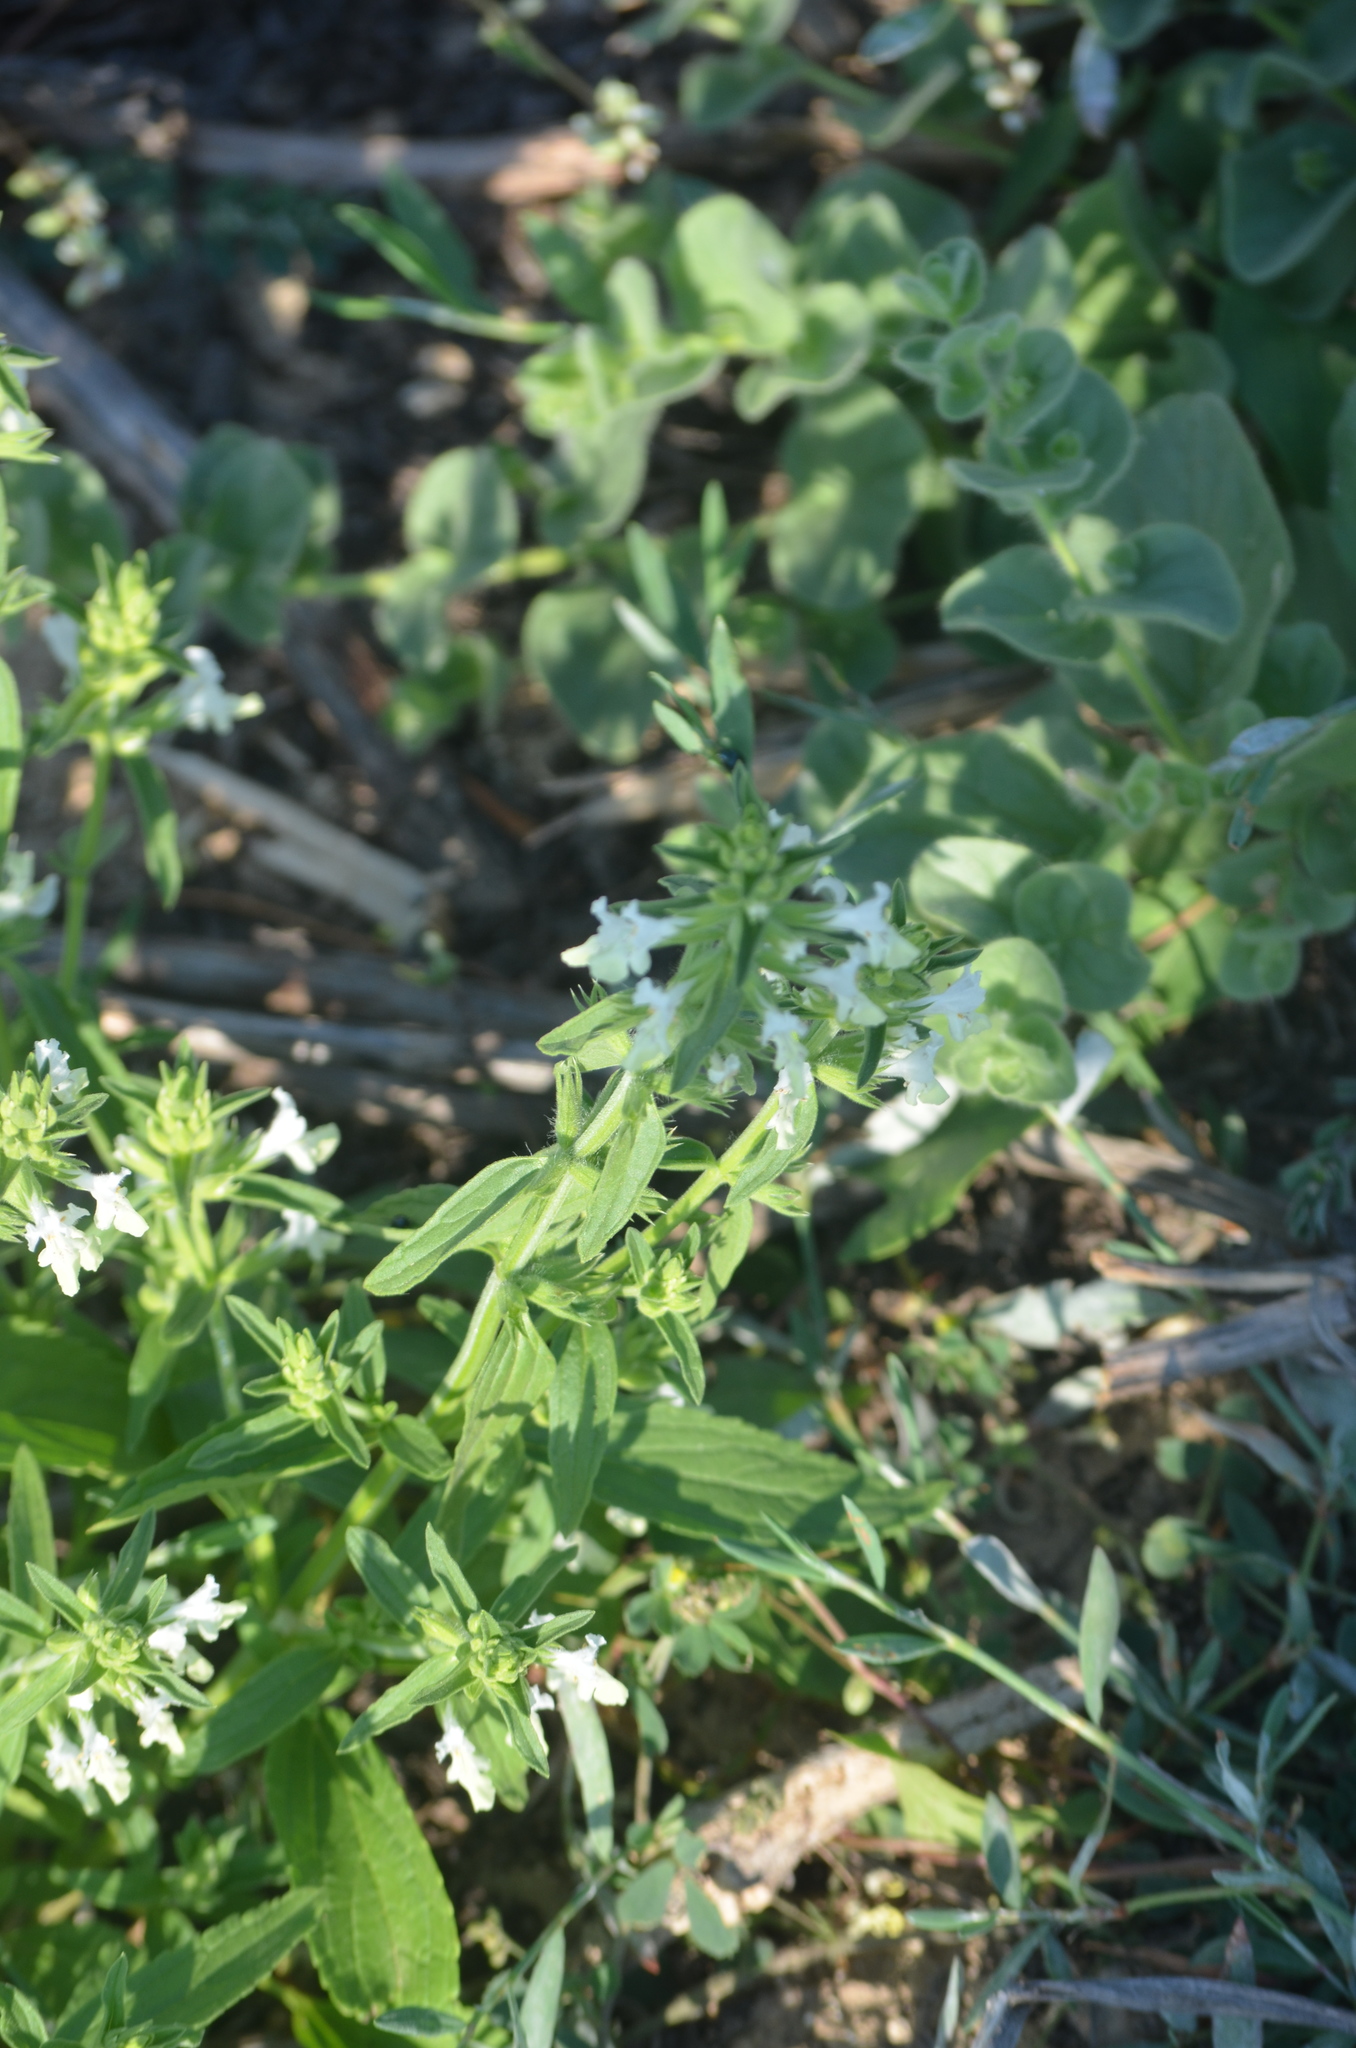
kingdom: Plantae
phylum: Tracheophyta
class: Magnoliopsida
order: Lamiales
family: Lamiaceae
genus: Stachys
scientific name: Stachys recta
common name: Perennial yellow-woundwort
